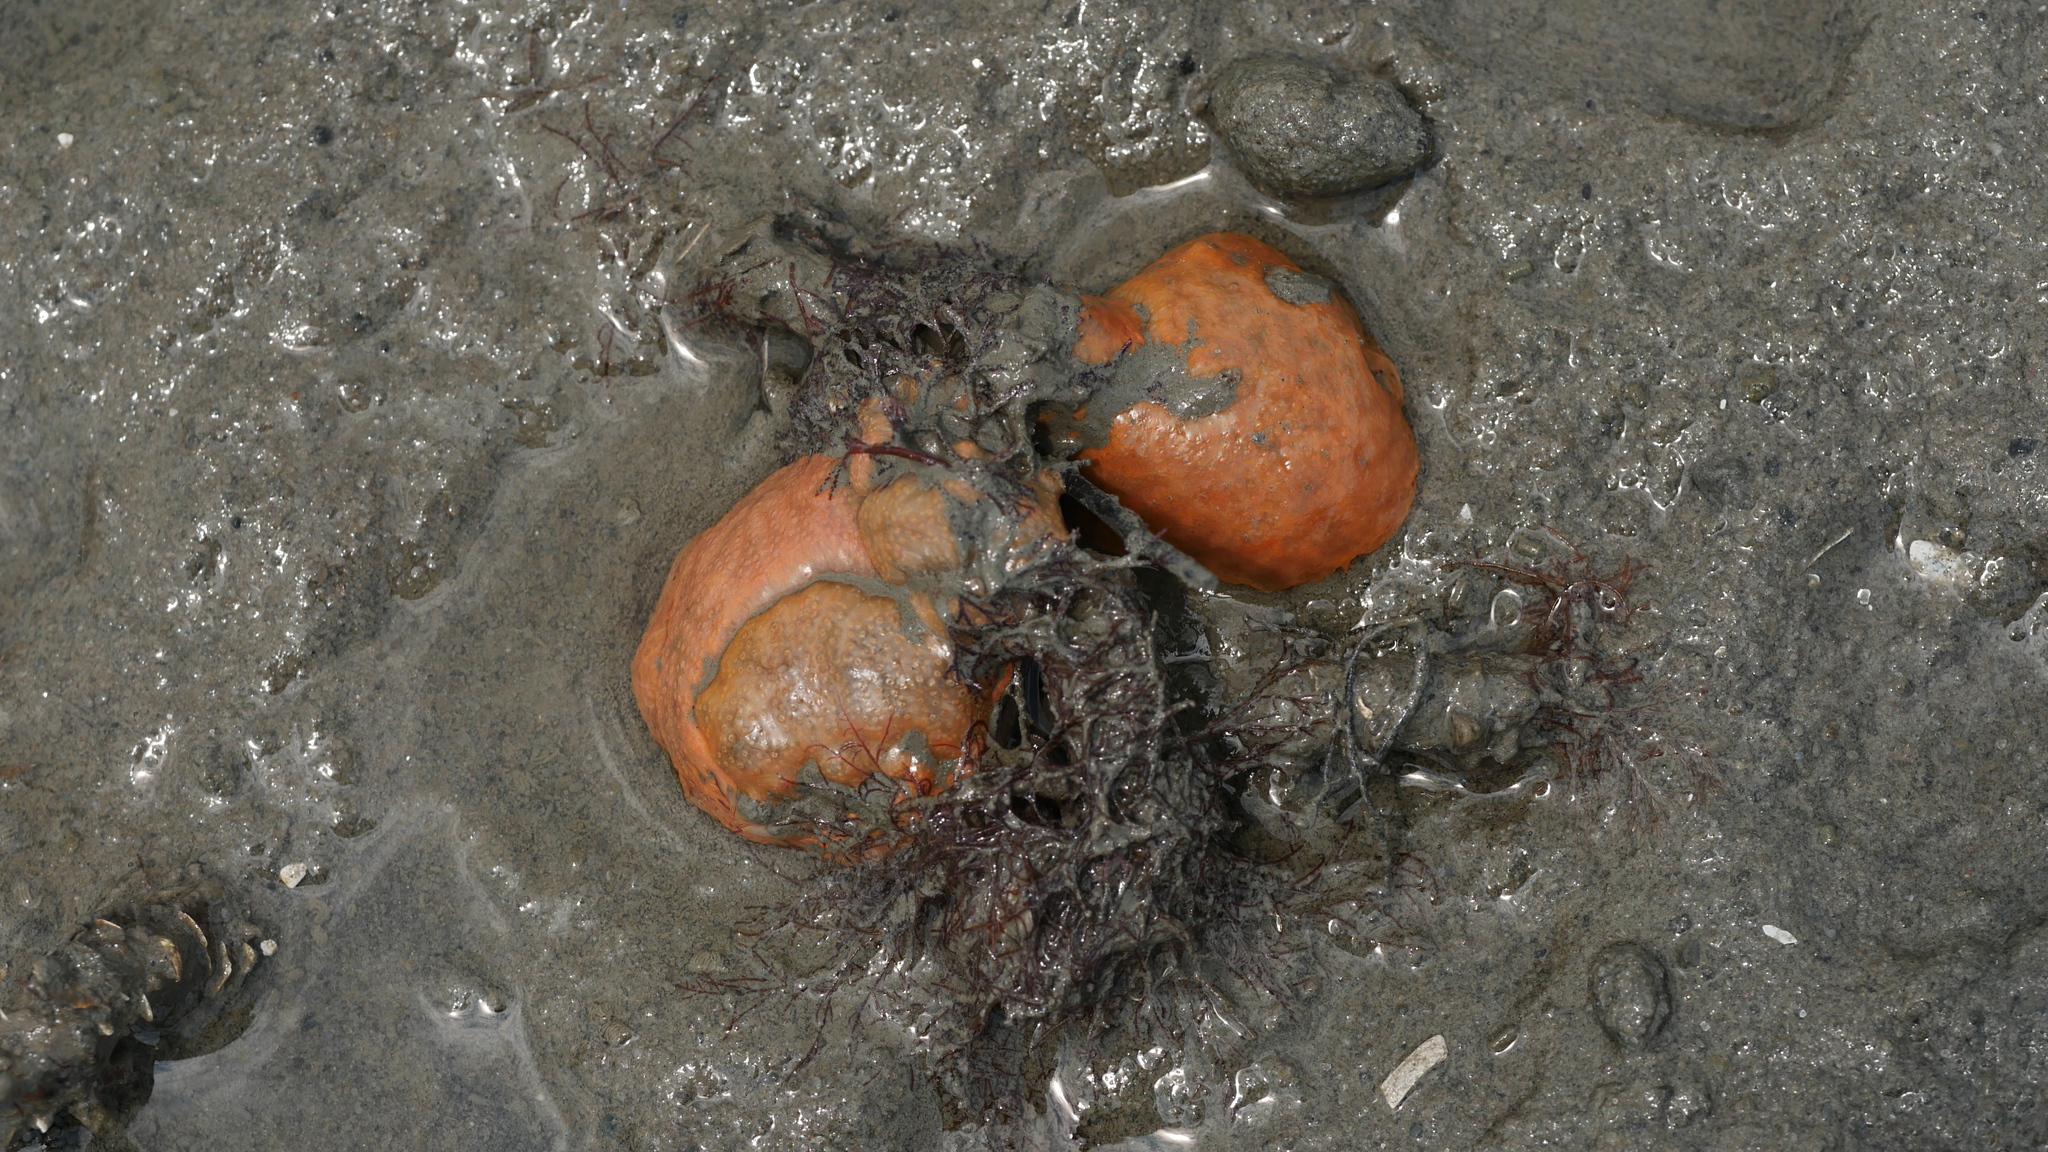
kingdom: Animalia
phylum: Chordata
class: Ascidiacea
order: Aplousobranchia
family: Polyclinidae
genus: Aplidium
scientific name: Aplidium stellatum
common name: Atlantic sea pork
